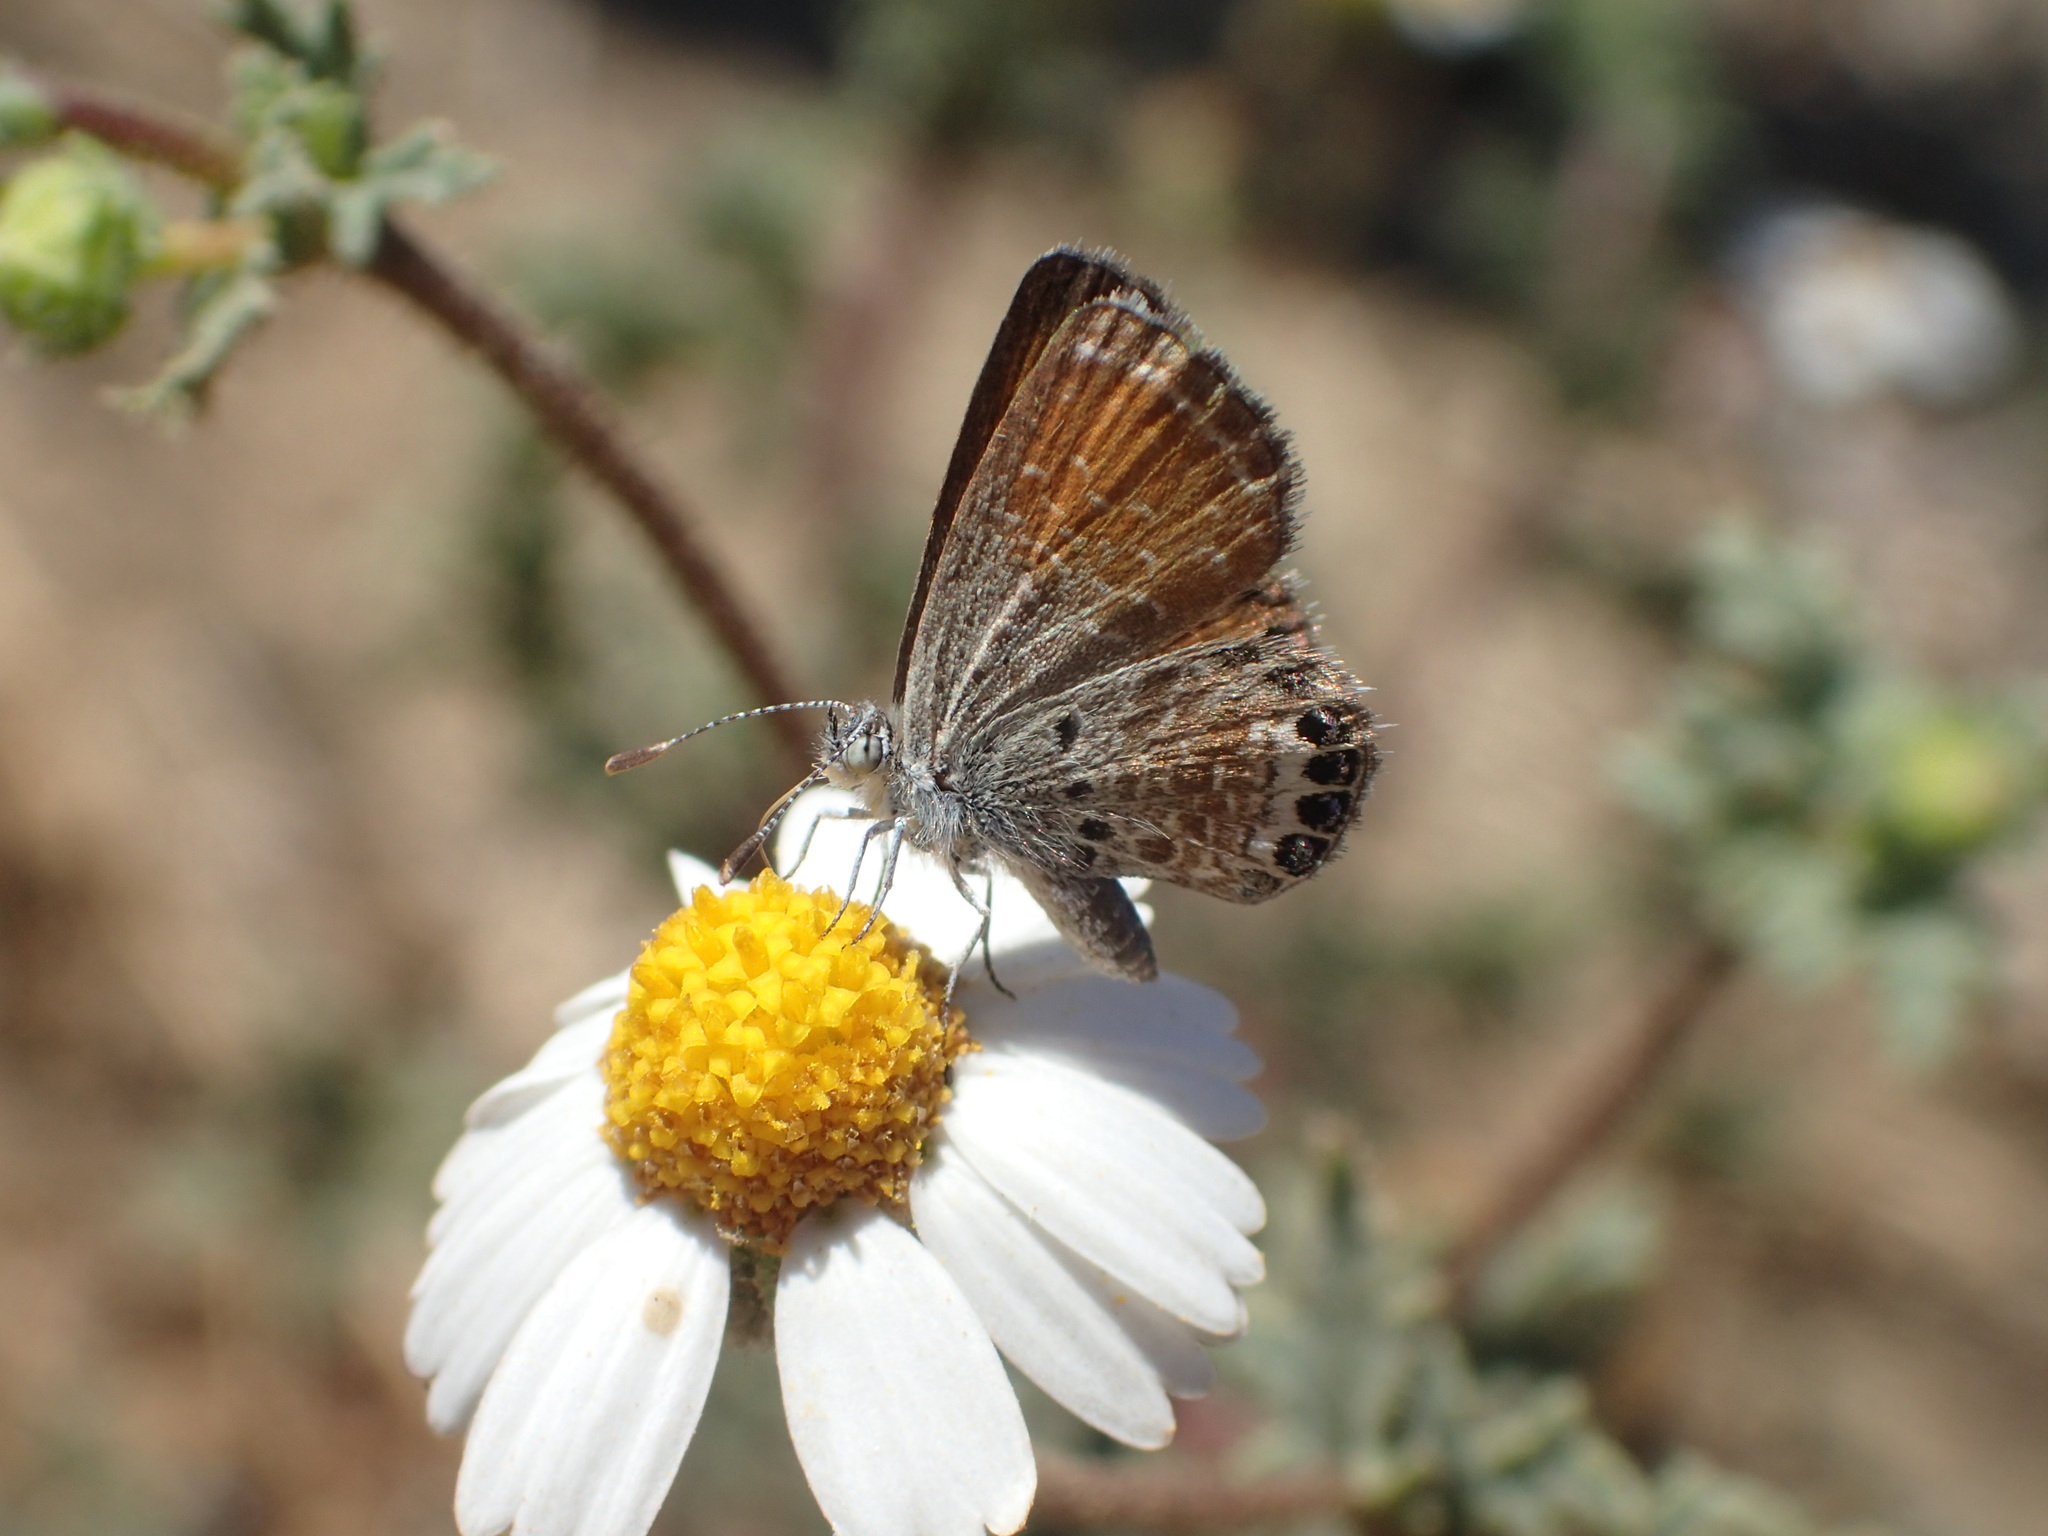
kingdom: Animalia
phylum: Arthropoda
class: Insecta
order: Lepidoptera
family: Lycaenidae
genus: Brephidium
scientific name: Brephidium exilis
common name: Pygmy blue
